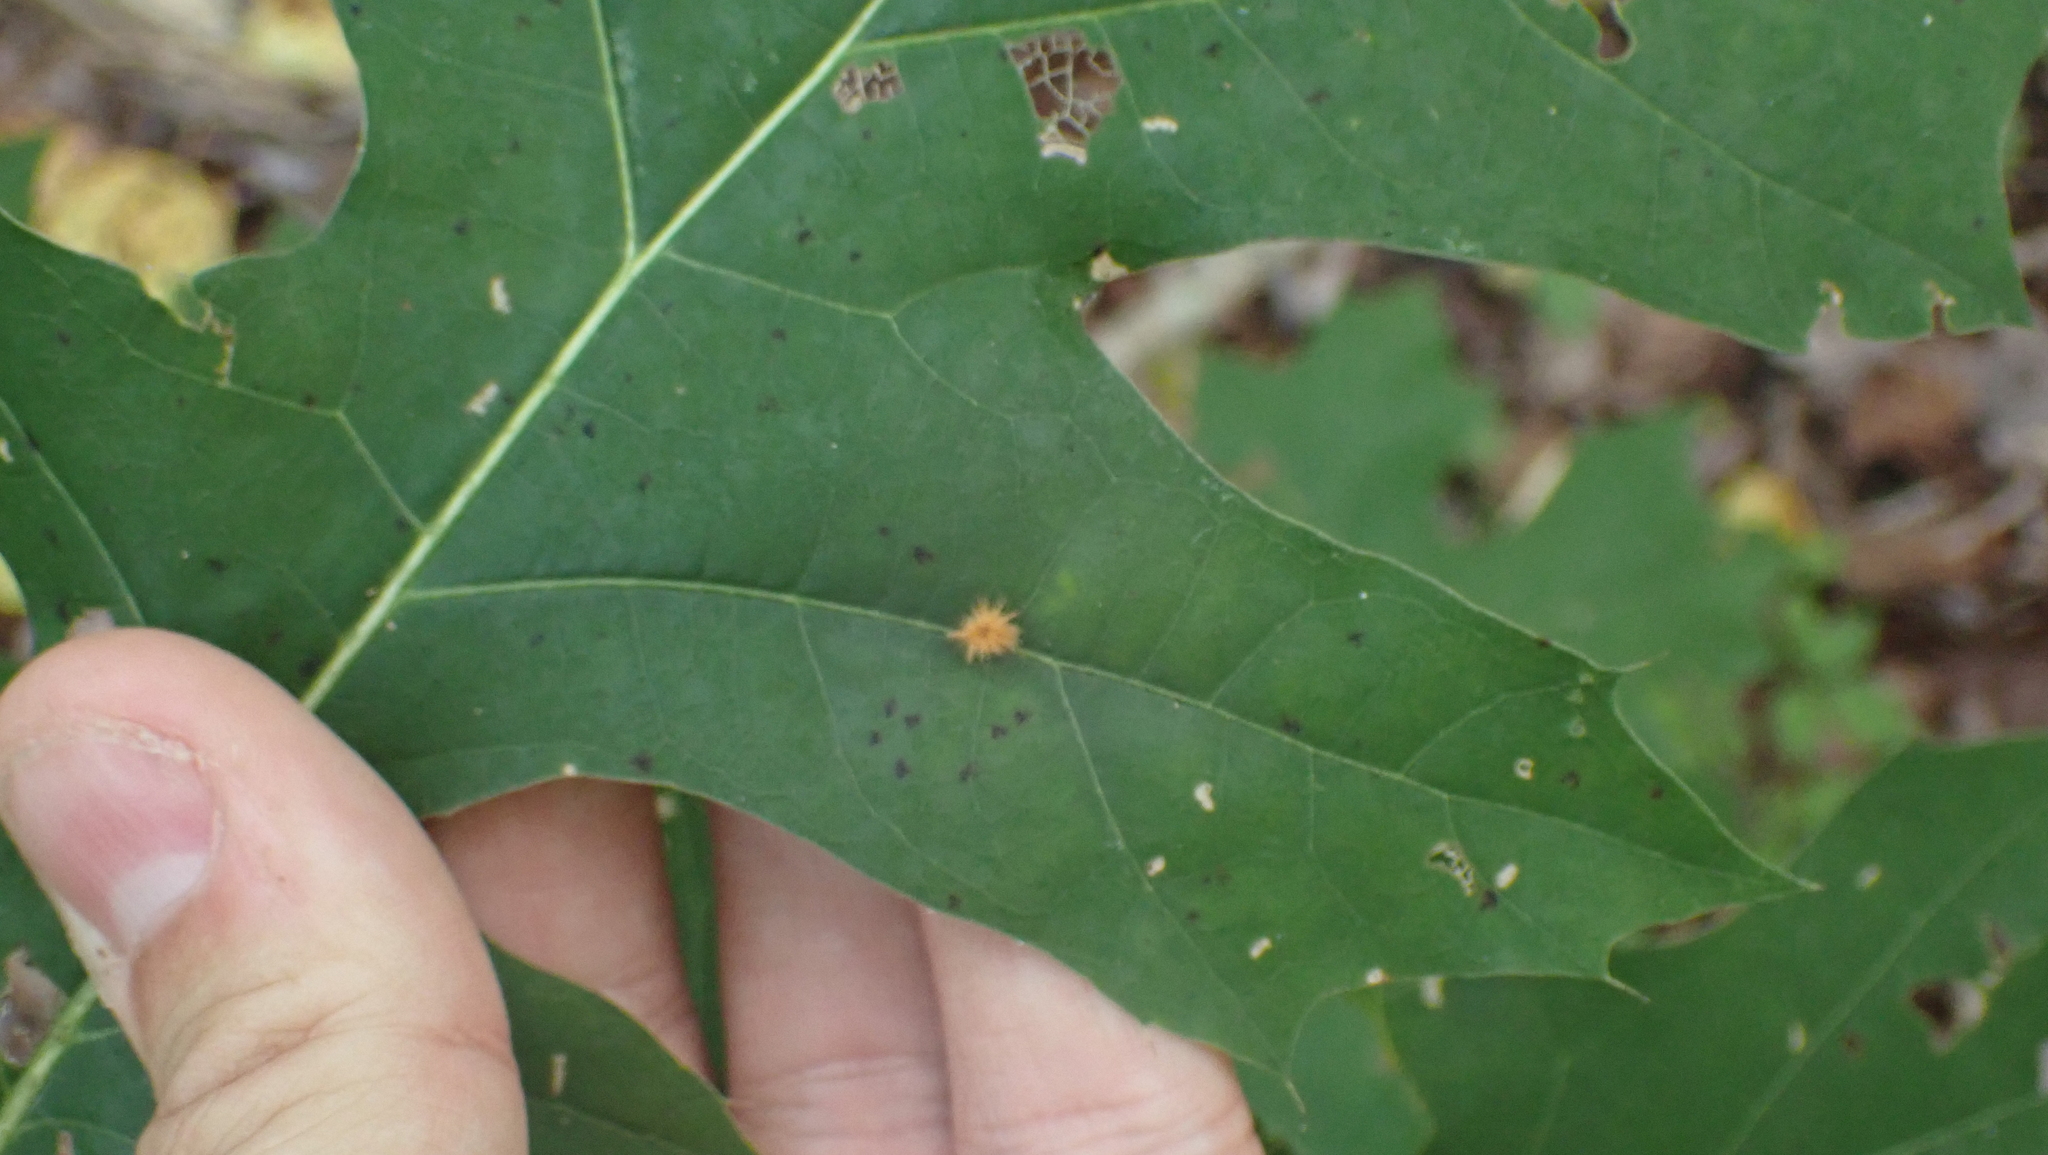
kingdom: Animalia
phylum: Arthropoda
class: Insecta
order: Hymenoptera
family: Cynipidae
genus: Callirhytis
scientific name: Callirhytis
